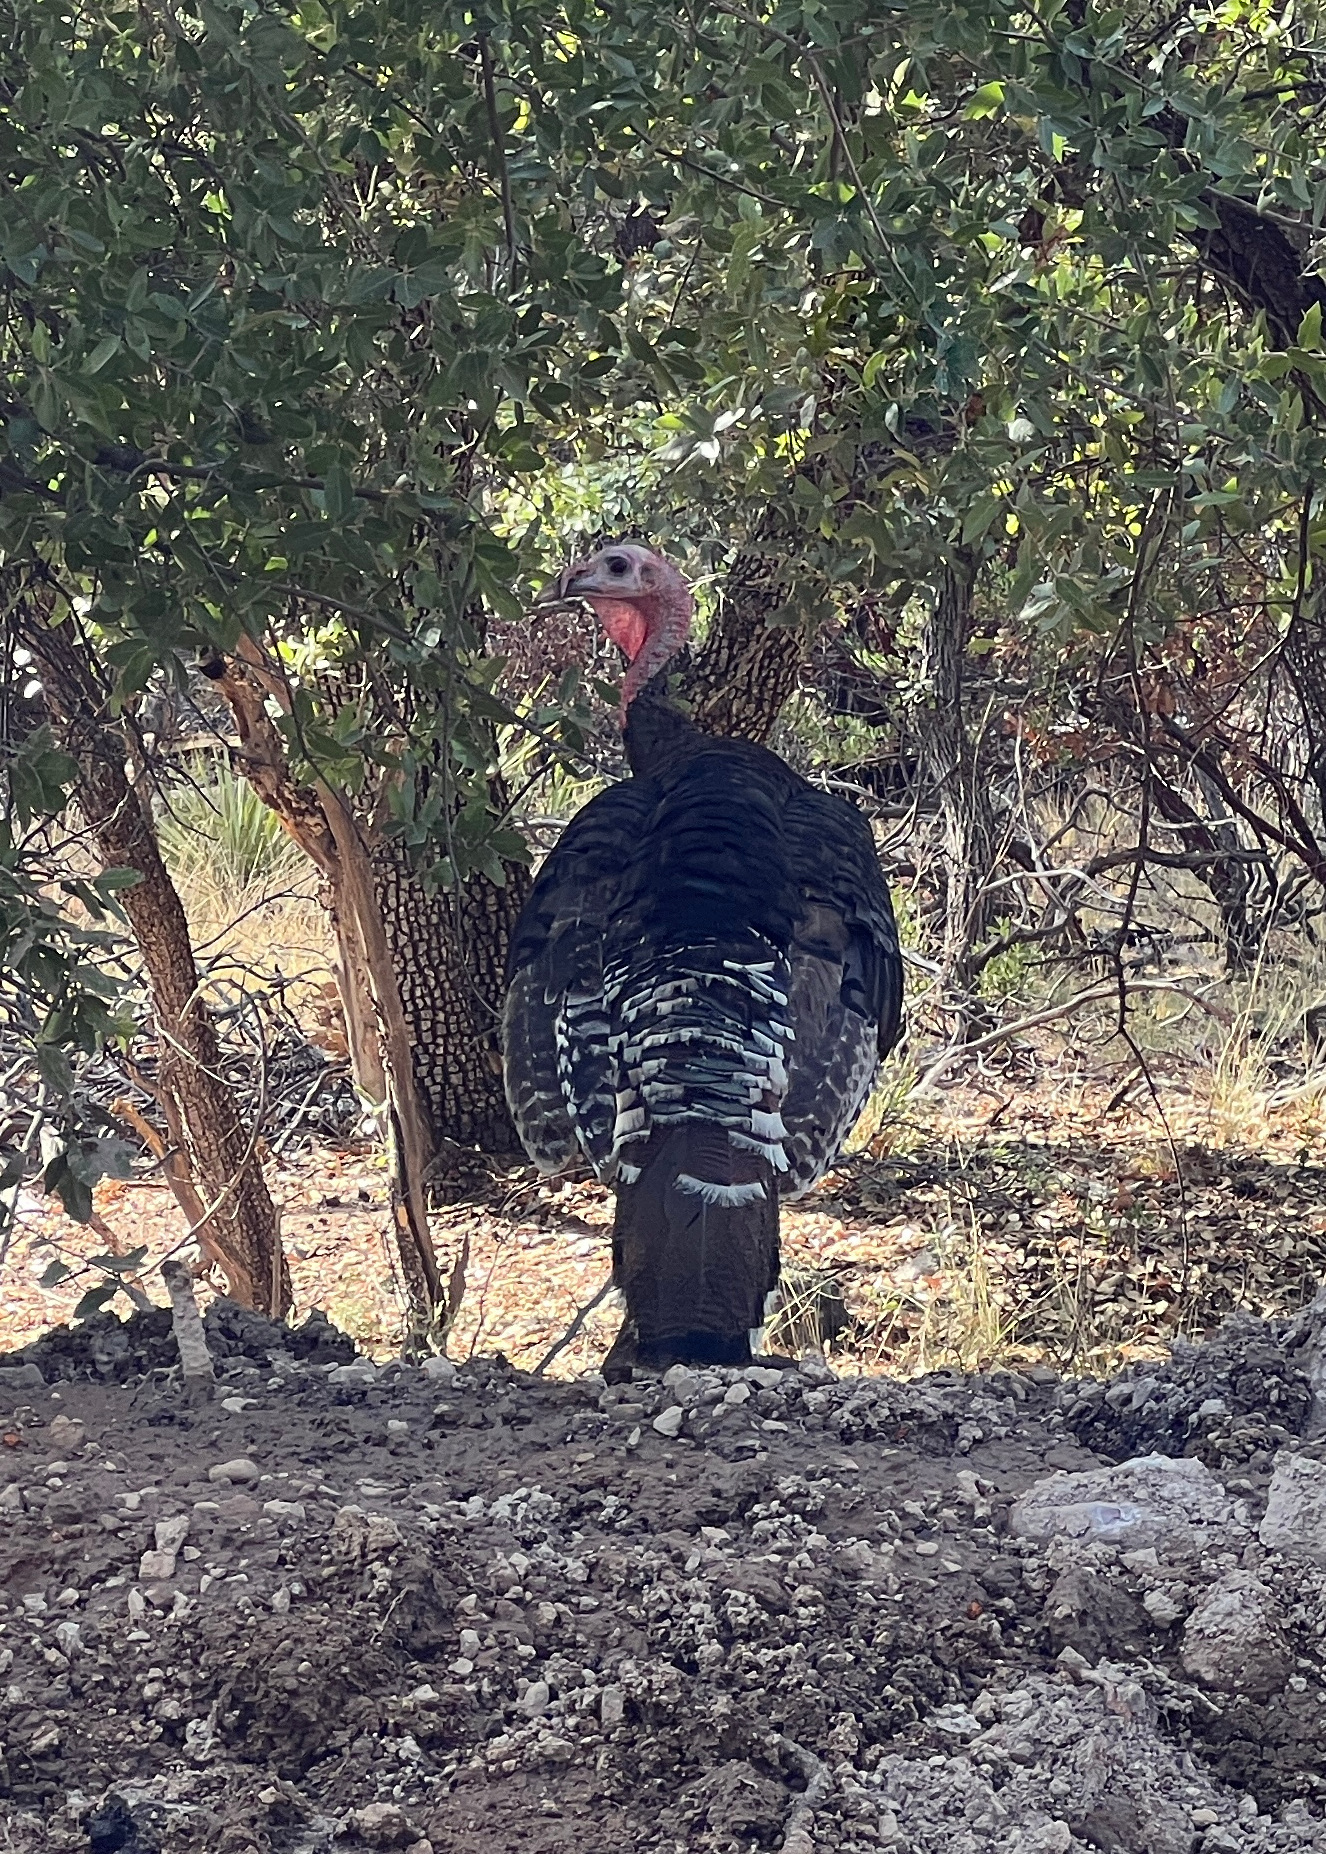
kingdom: Animalia
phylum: Chordata
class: Aves
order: Galliformes
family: Phasianidae
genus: Meleagris
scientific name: Meleagris gallopavo
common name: Wild turkey
